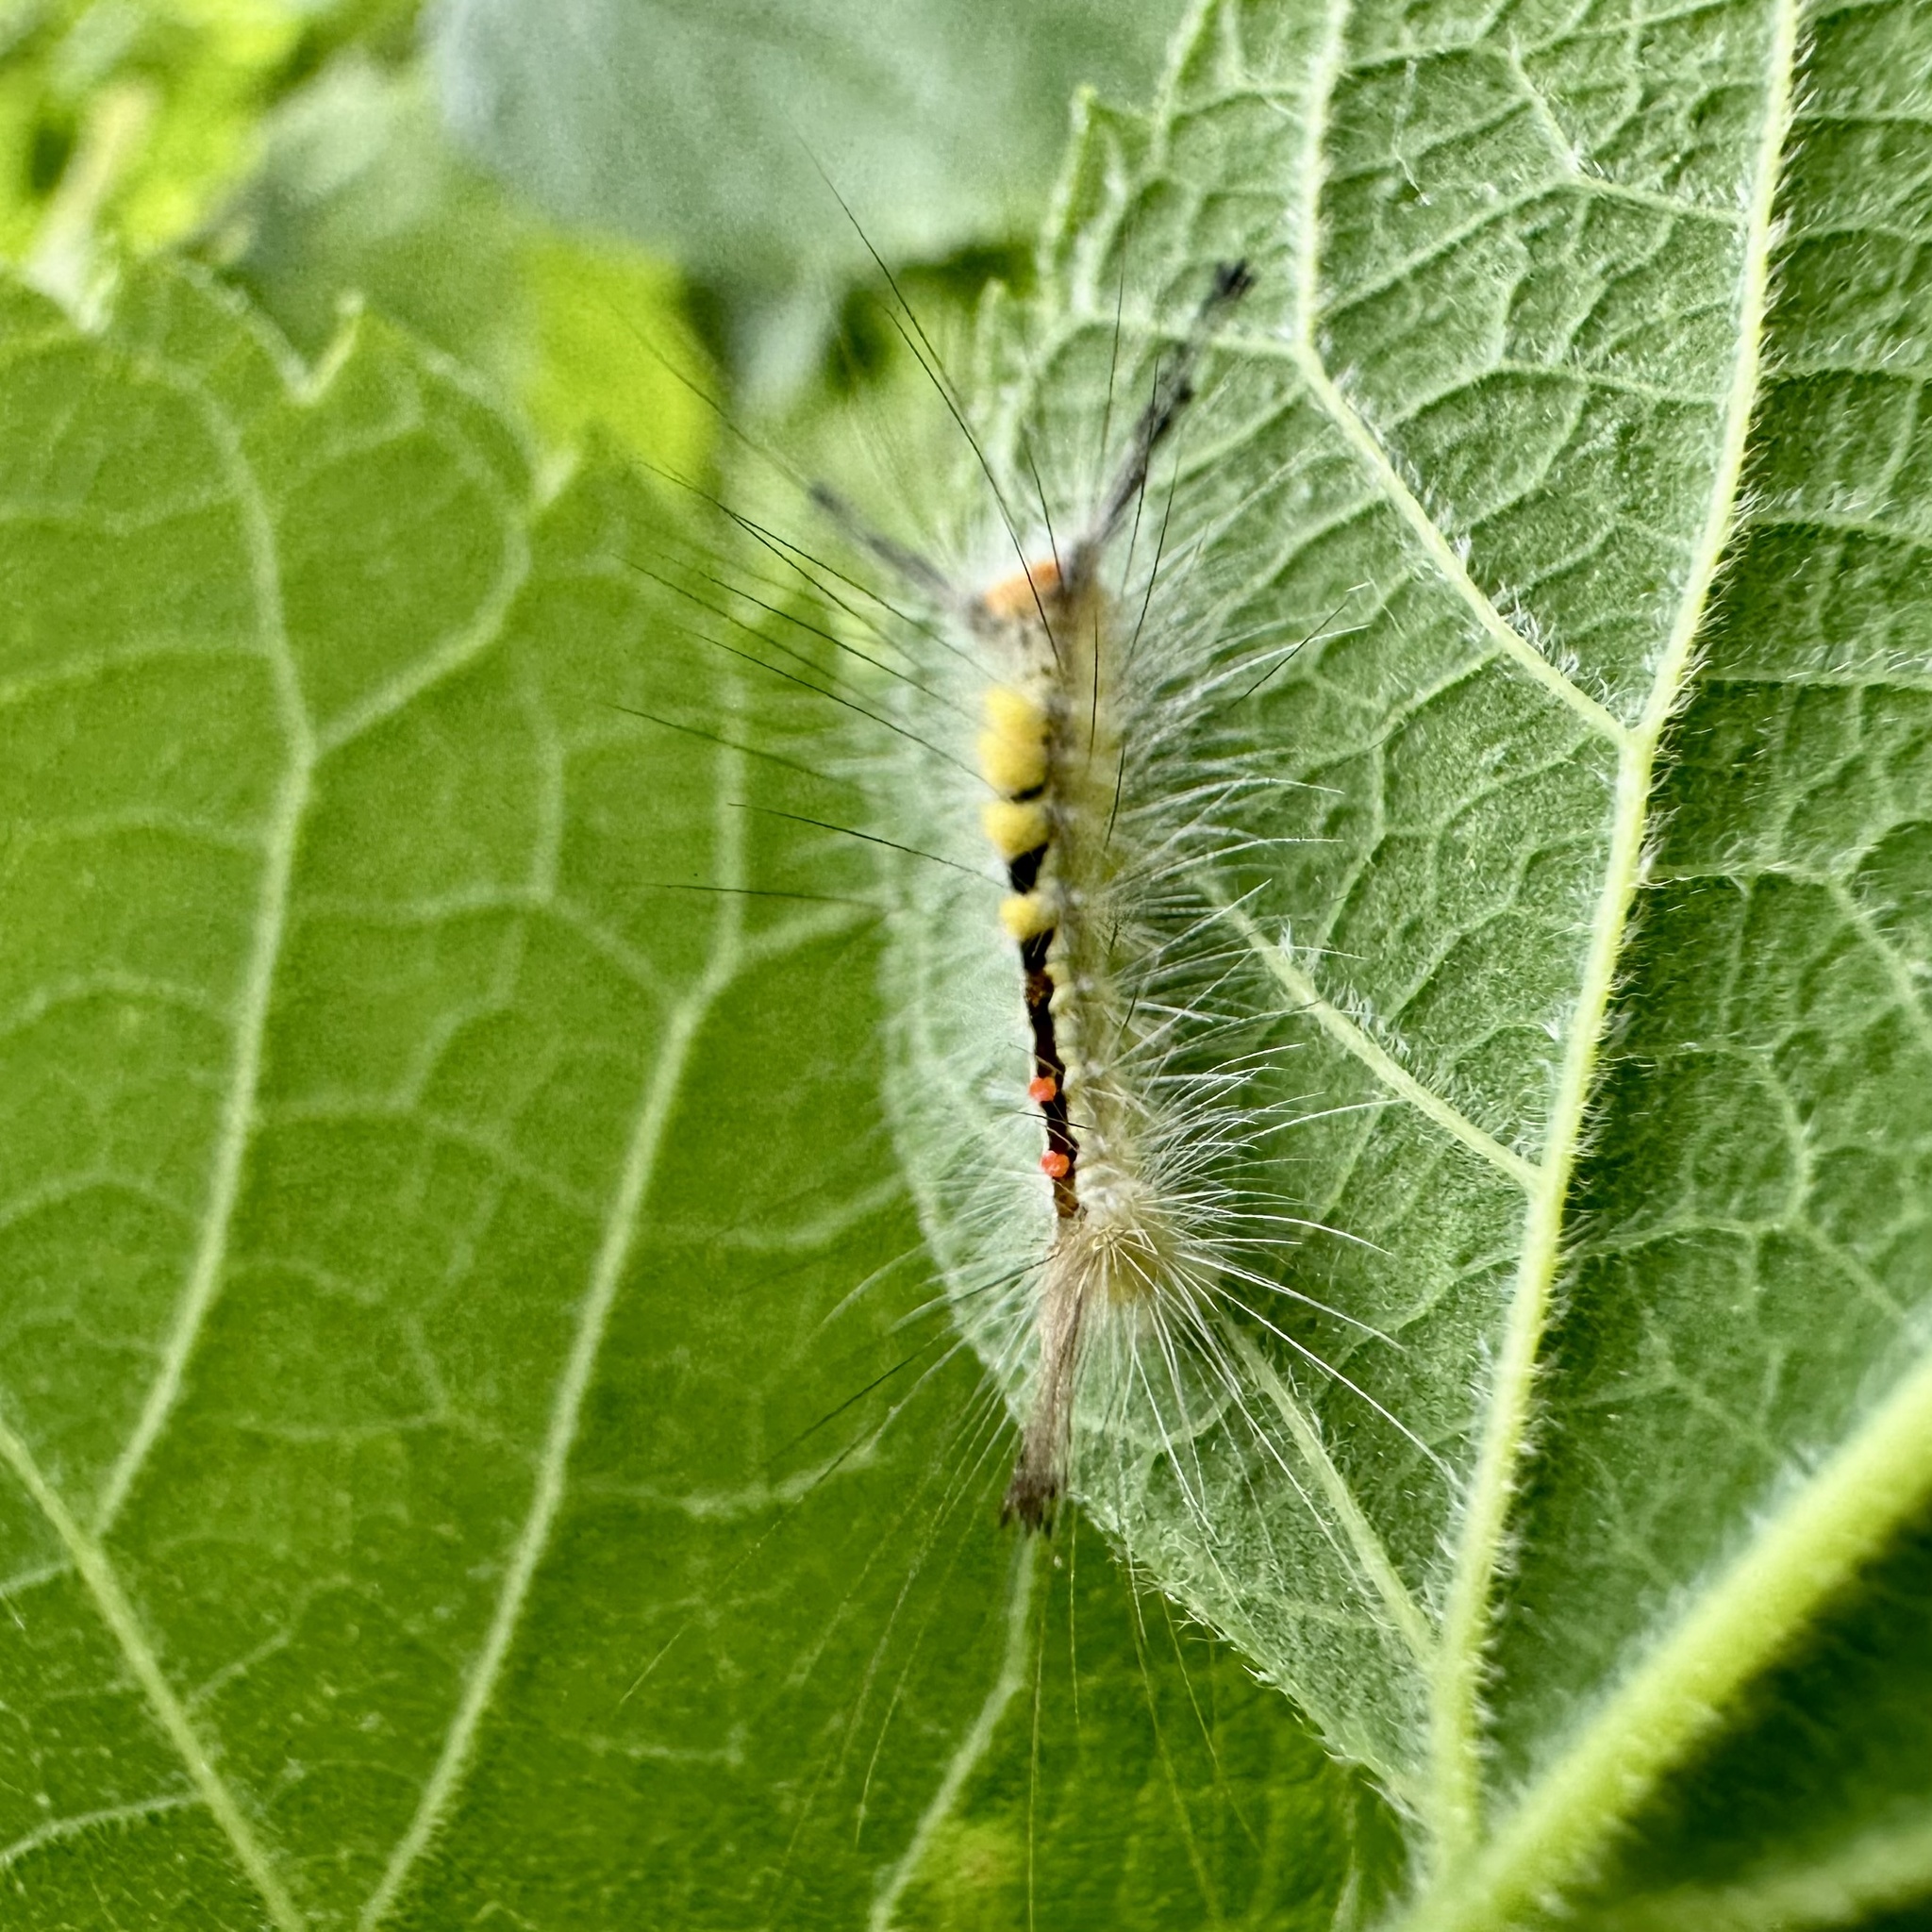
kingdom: Animalia
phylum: Arthropoda
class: Insecta
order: Lepidoptera
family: Erebidae
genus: Orgyia
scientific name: Orgyia leucostigma
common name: White-marked tussock moth
